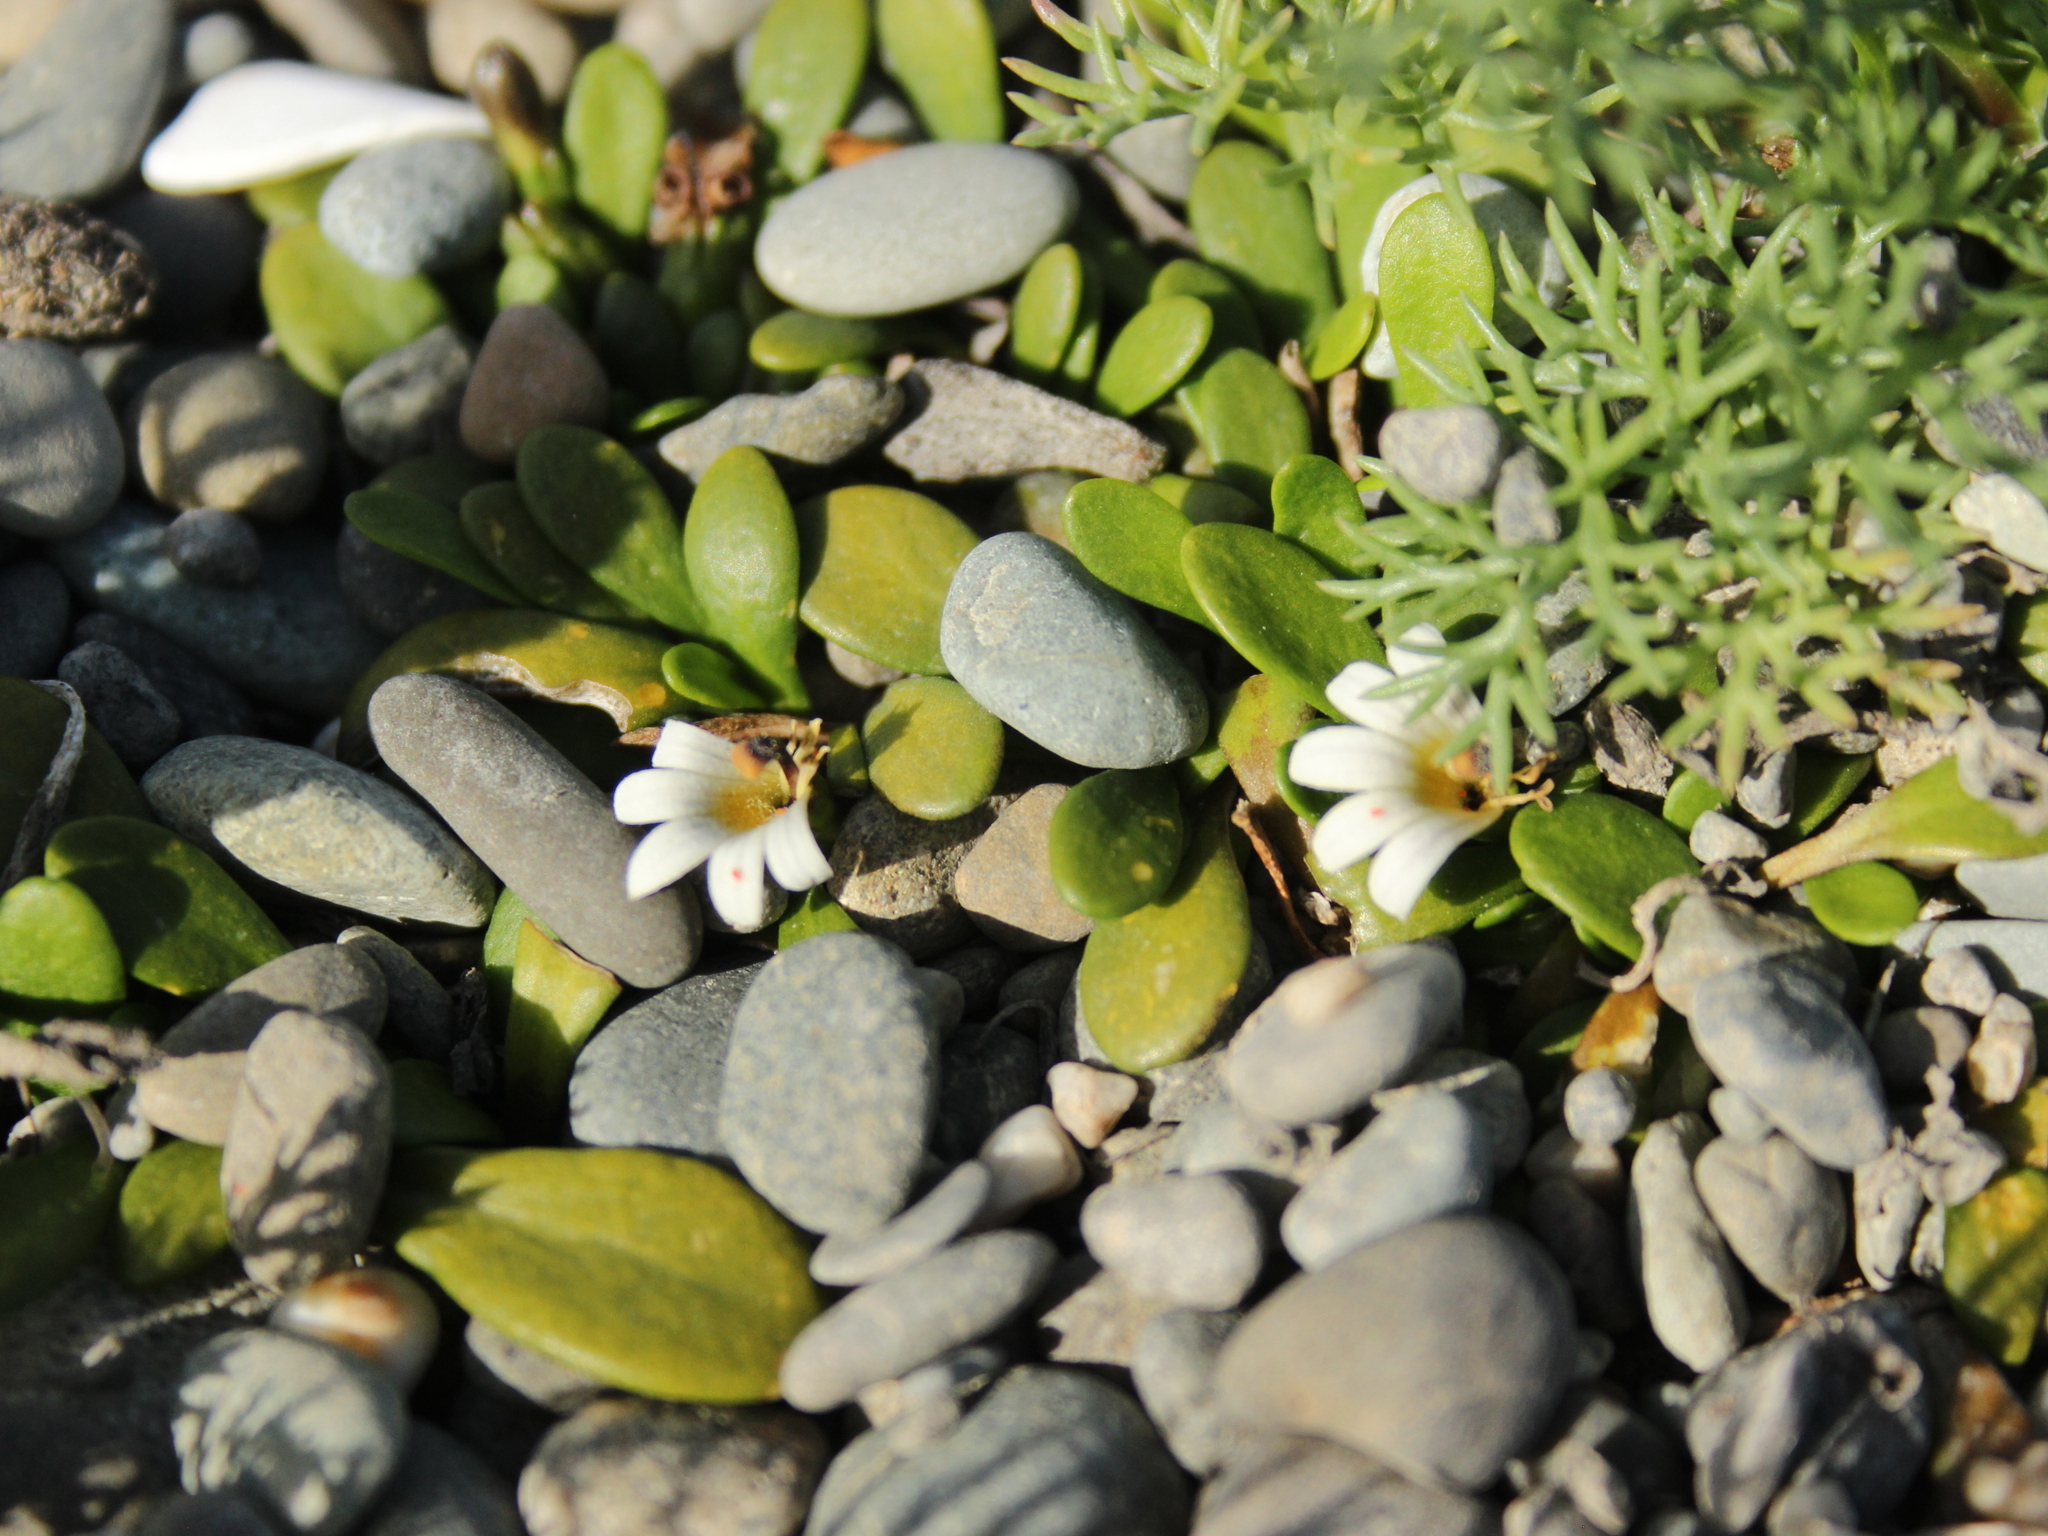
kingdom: Plantae
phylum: Tracheophyta
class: Magnoliopsida
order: Asterales
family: Goodeniaceae
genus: Goodenia
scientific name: Goodenia radicans
